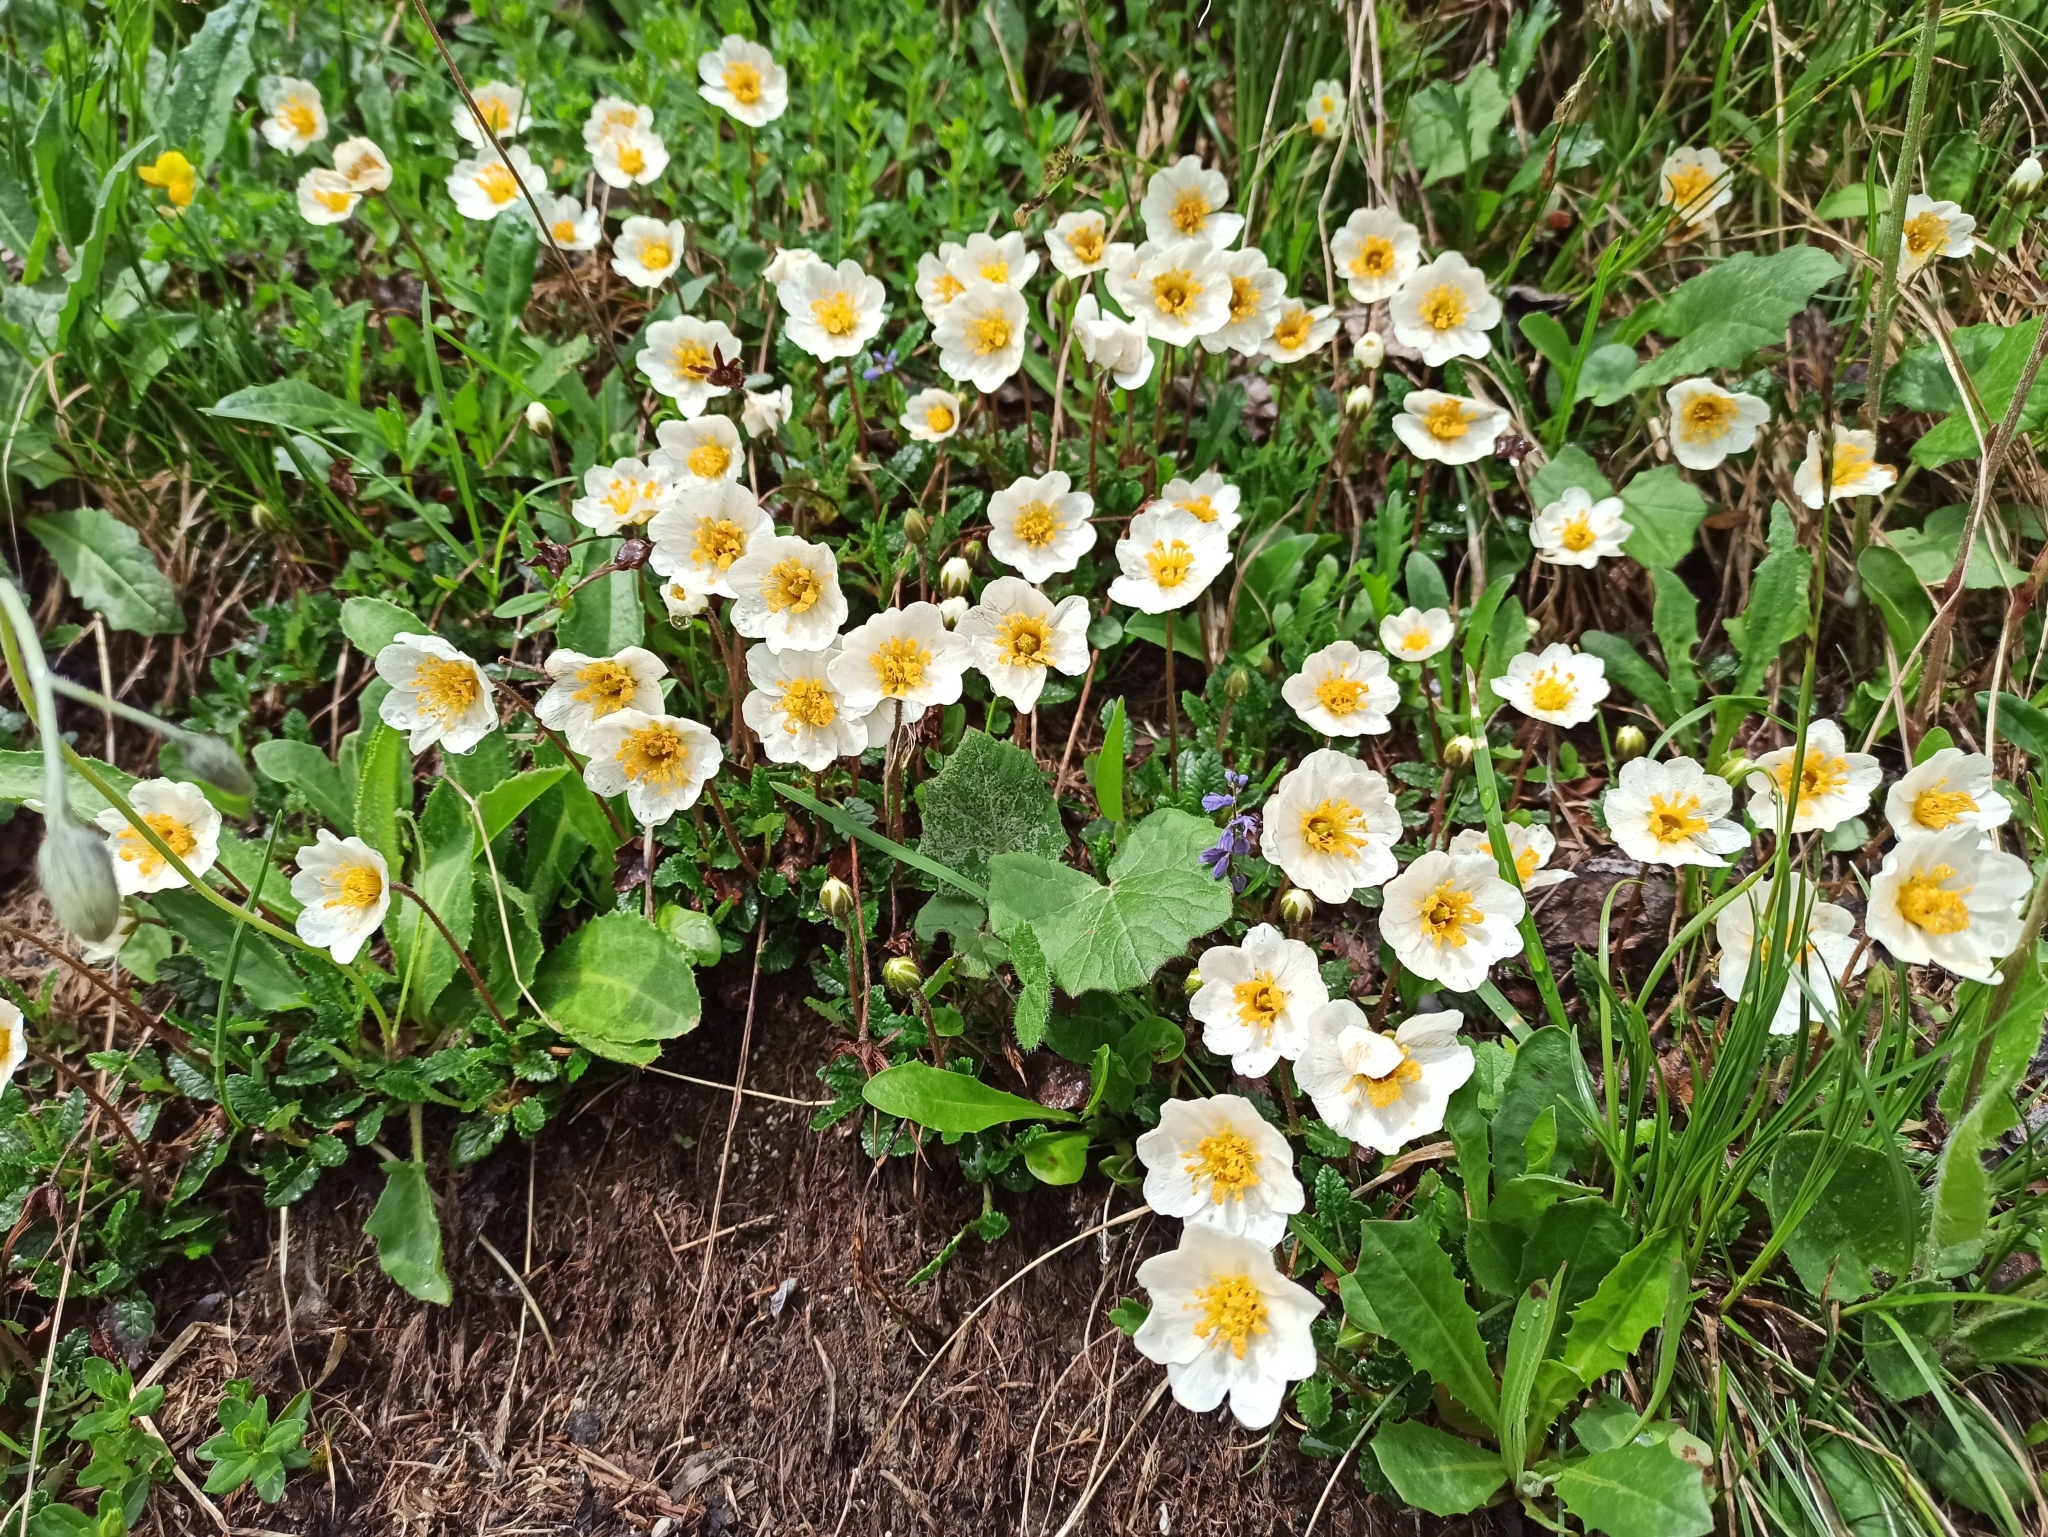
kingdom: Plantae
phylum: Tracheophyta
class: Magnoliopsida
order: Rosales
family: Rosaceae
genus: Dryas
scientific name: Dryas octopetala
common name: Eight-petal mountain-avens
